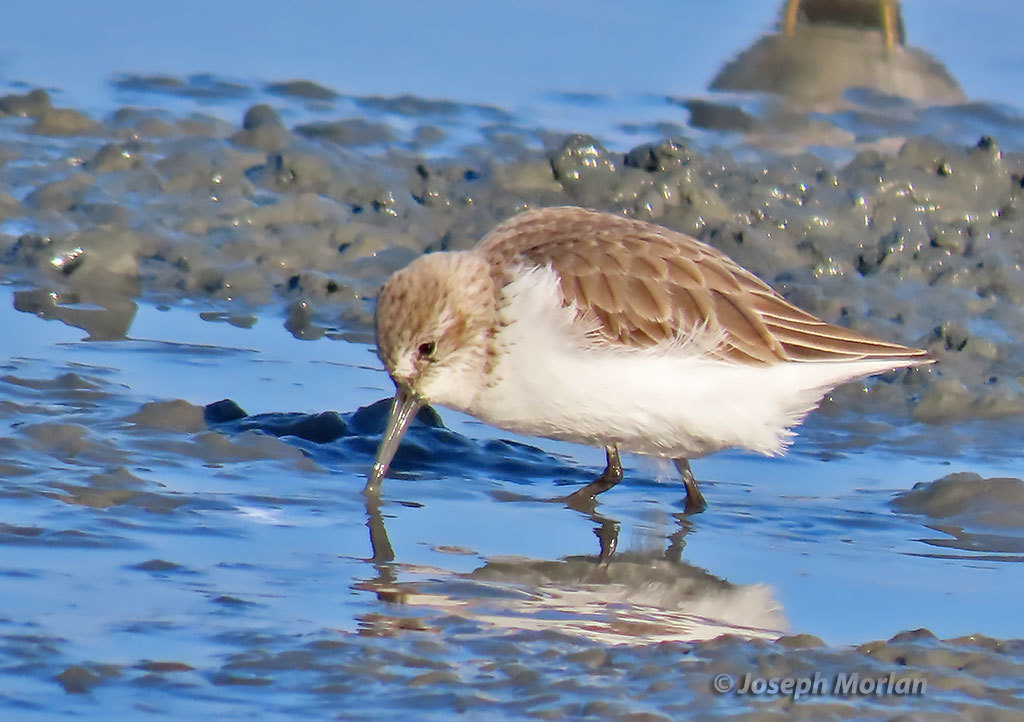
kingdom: Animalia
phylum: Chordata
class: Aves
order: Charadriiformes
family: Scolopacidae
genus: Calidris
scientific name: Calidris mauri
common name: Western sandpiper
